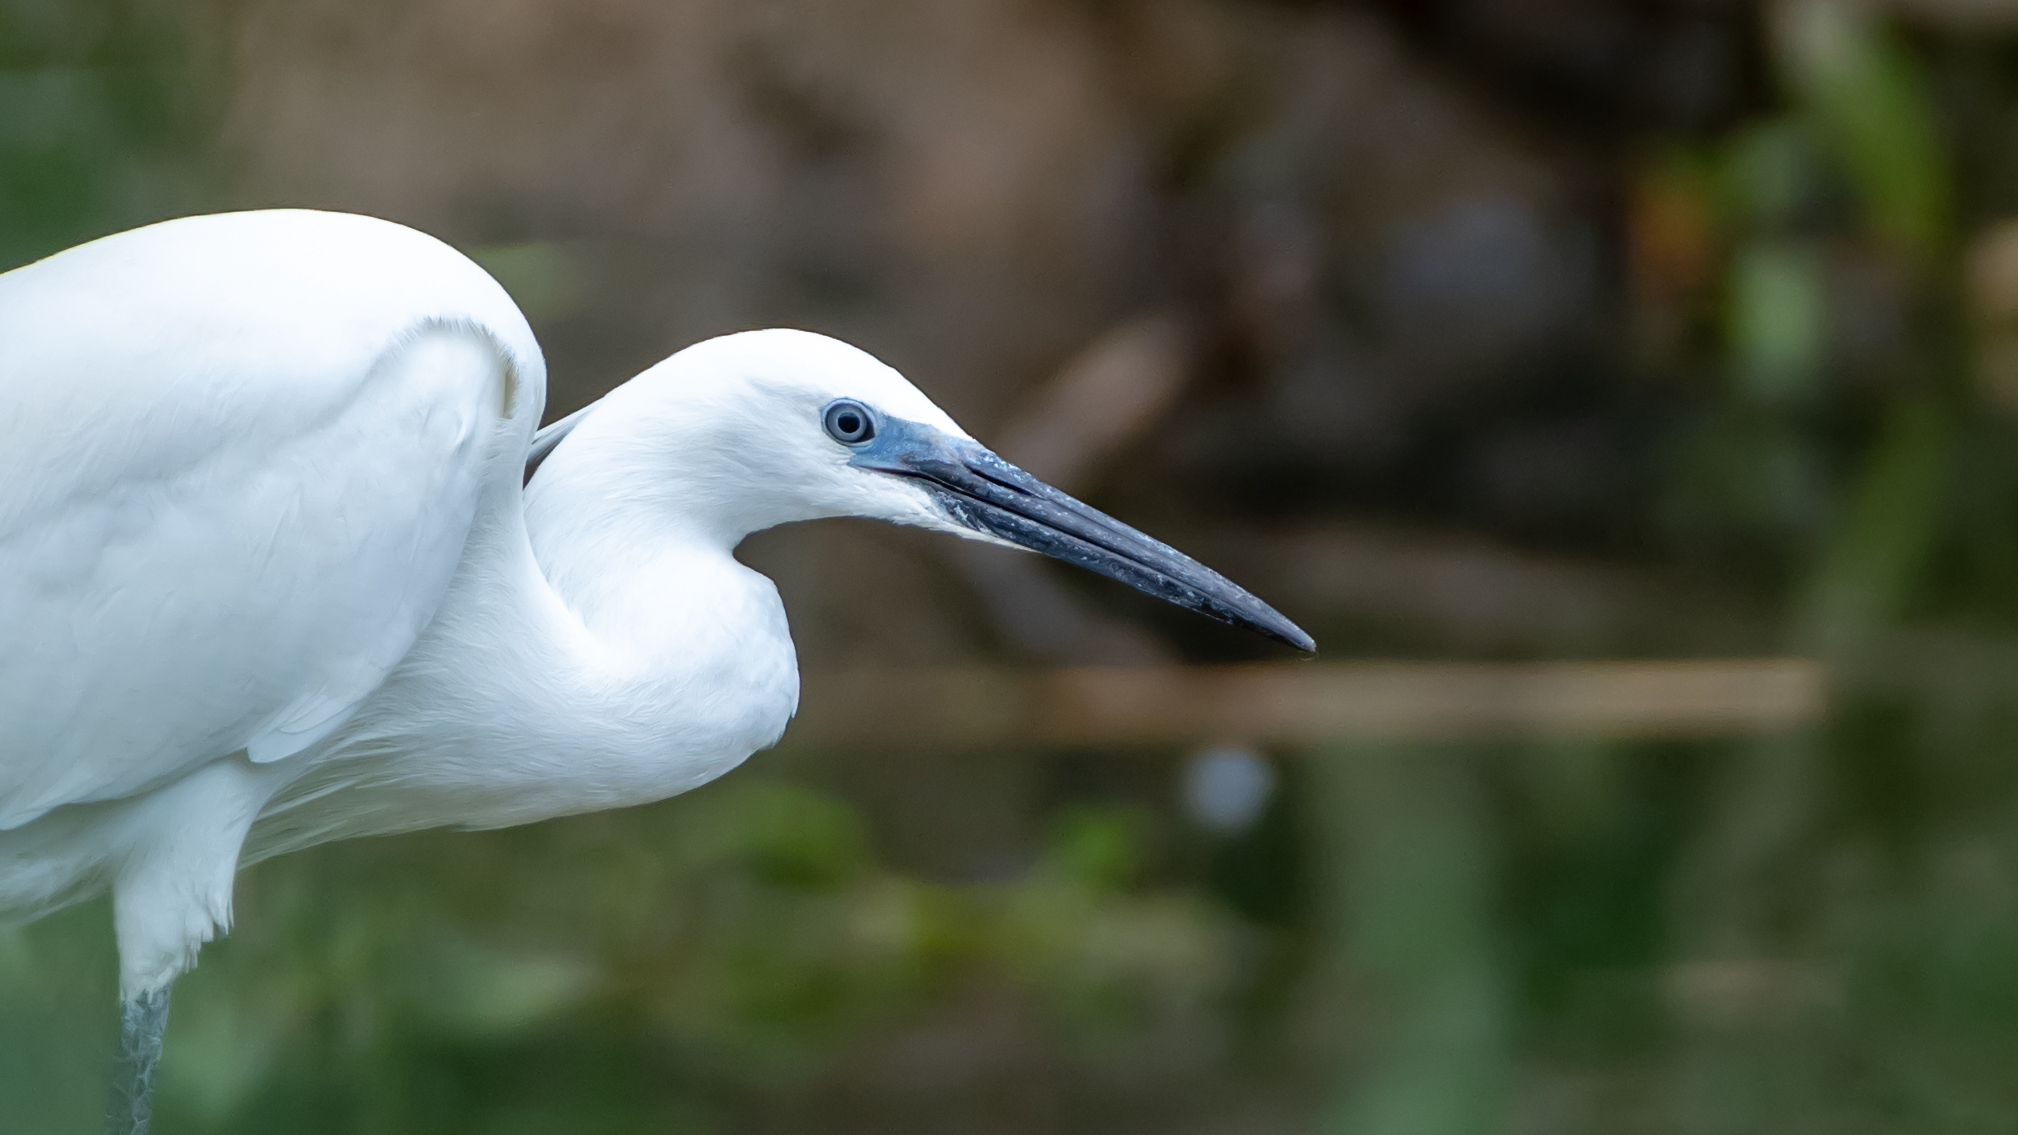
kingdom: Animalia
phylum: Chordata
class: Aves
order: Pelecaniformes
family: Ardeidae
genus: Egretta
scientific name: Egretta garzetta
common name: Little egret
